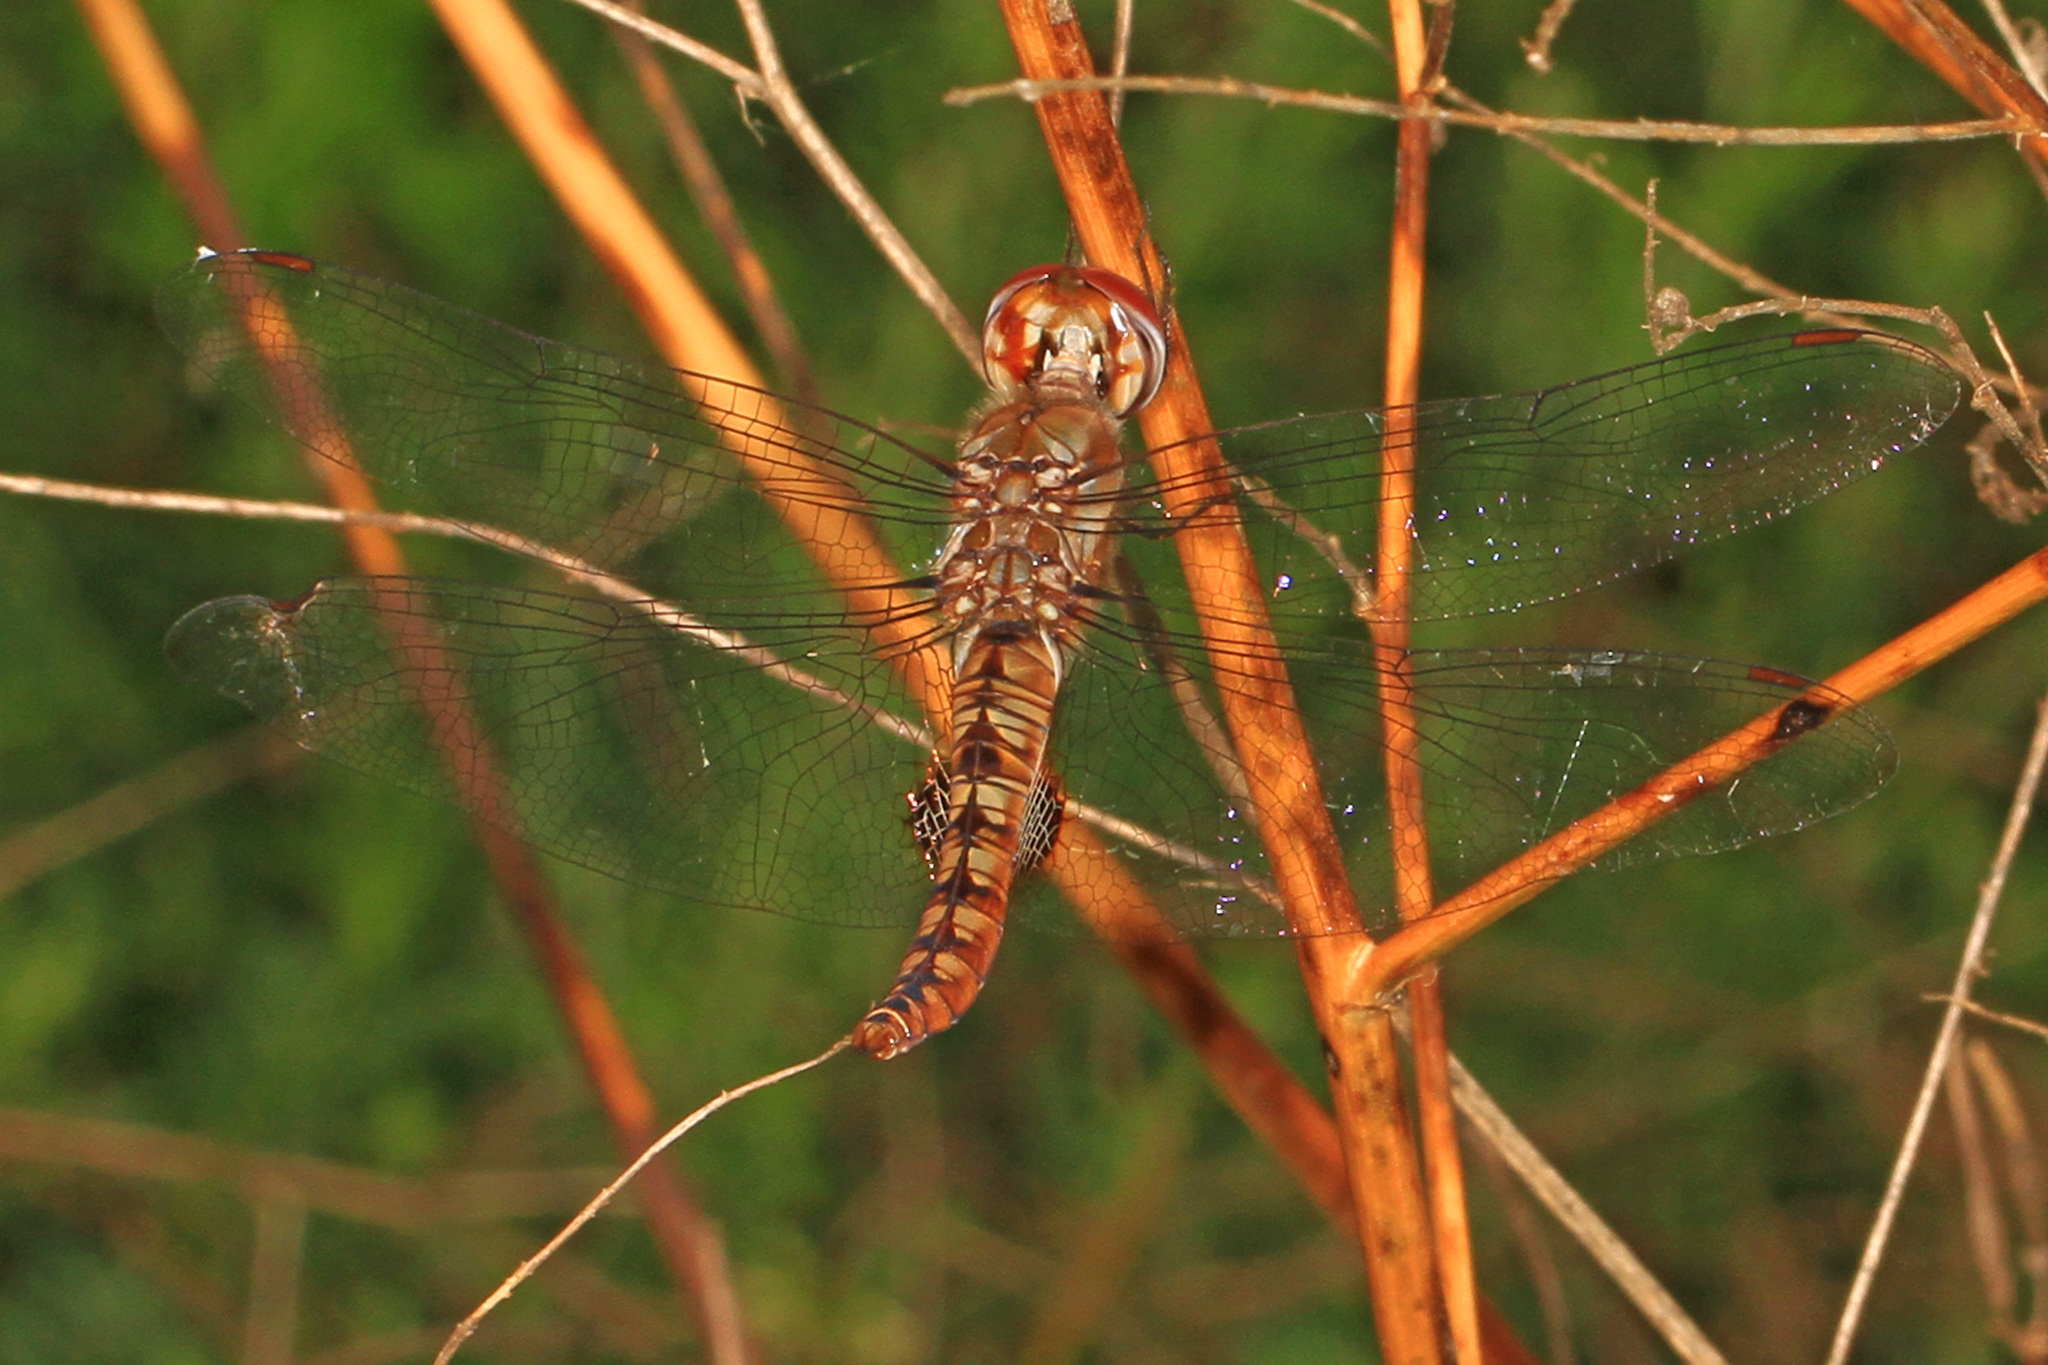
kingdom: Animalia
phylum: Arthropoda
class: Insecta
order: Odonata
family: Libellulidae
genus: Pantala
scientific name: Pantala hymenaea
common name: Spot-winged glider
